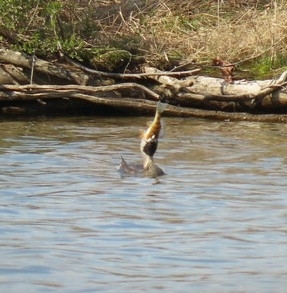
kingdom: Animalia
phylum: Chordata
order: Perciformes
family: Percidae
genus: Perca
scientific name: Perca flavescens
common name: Yellow perch
